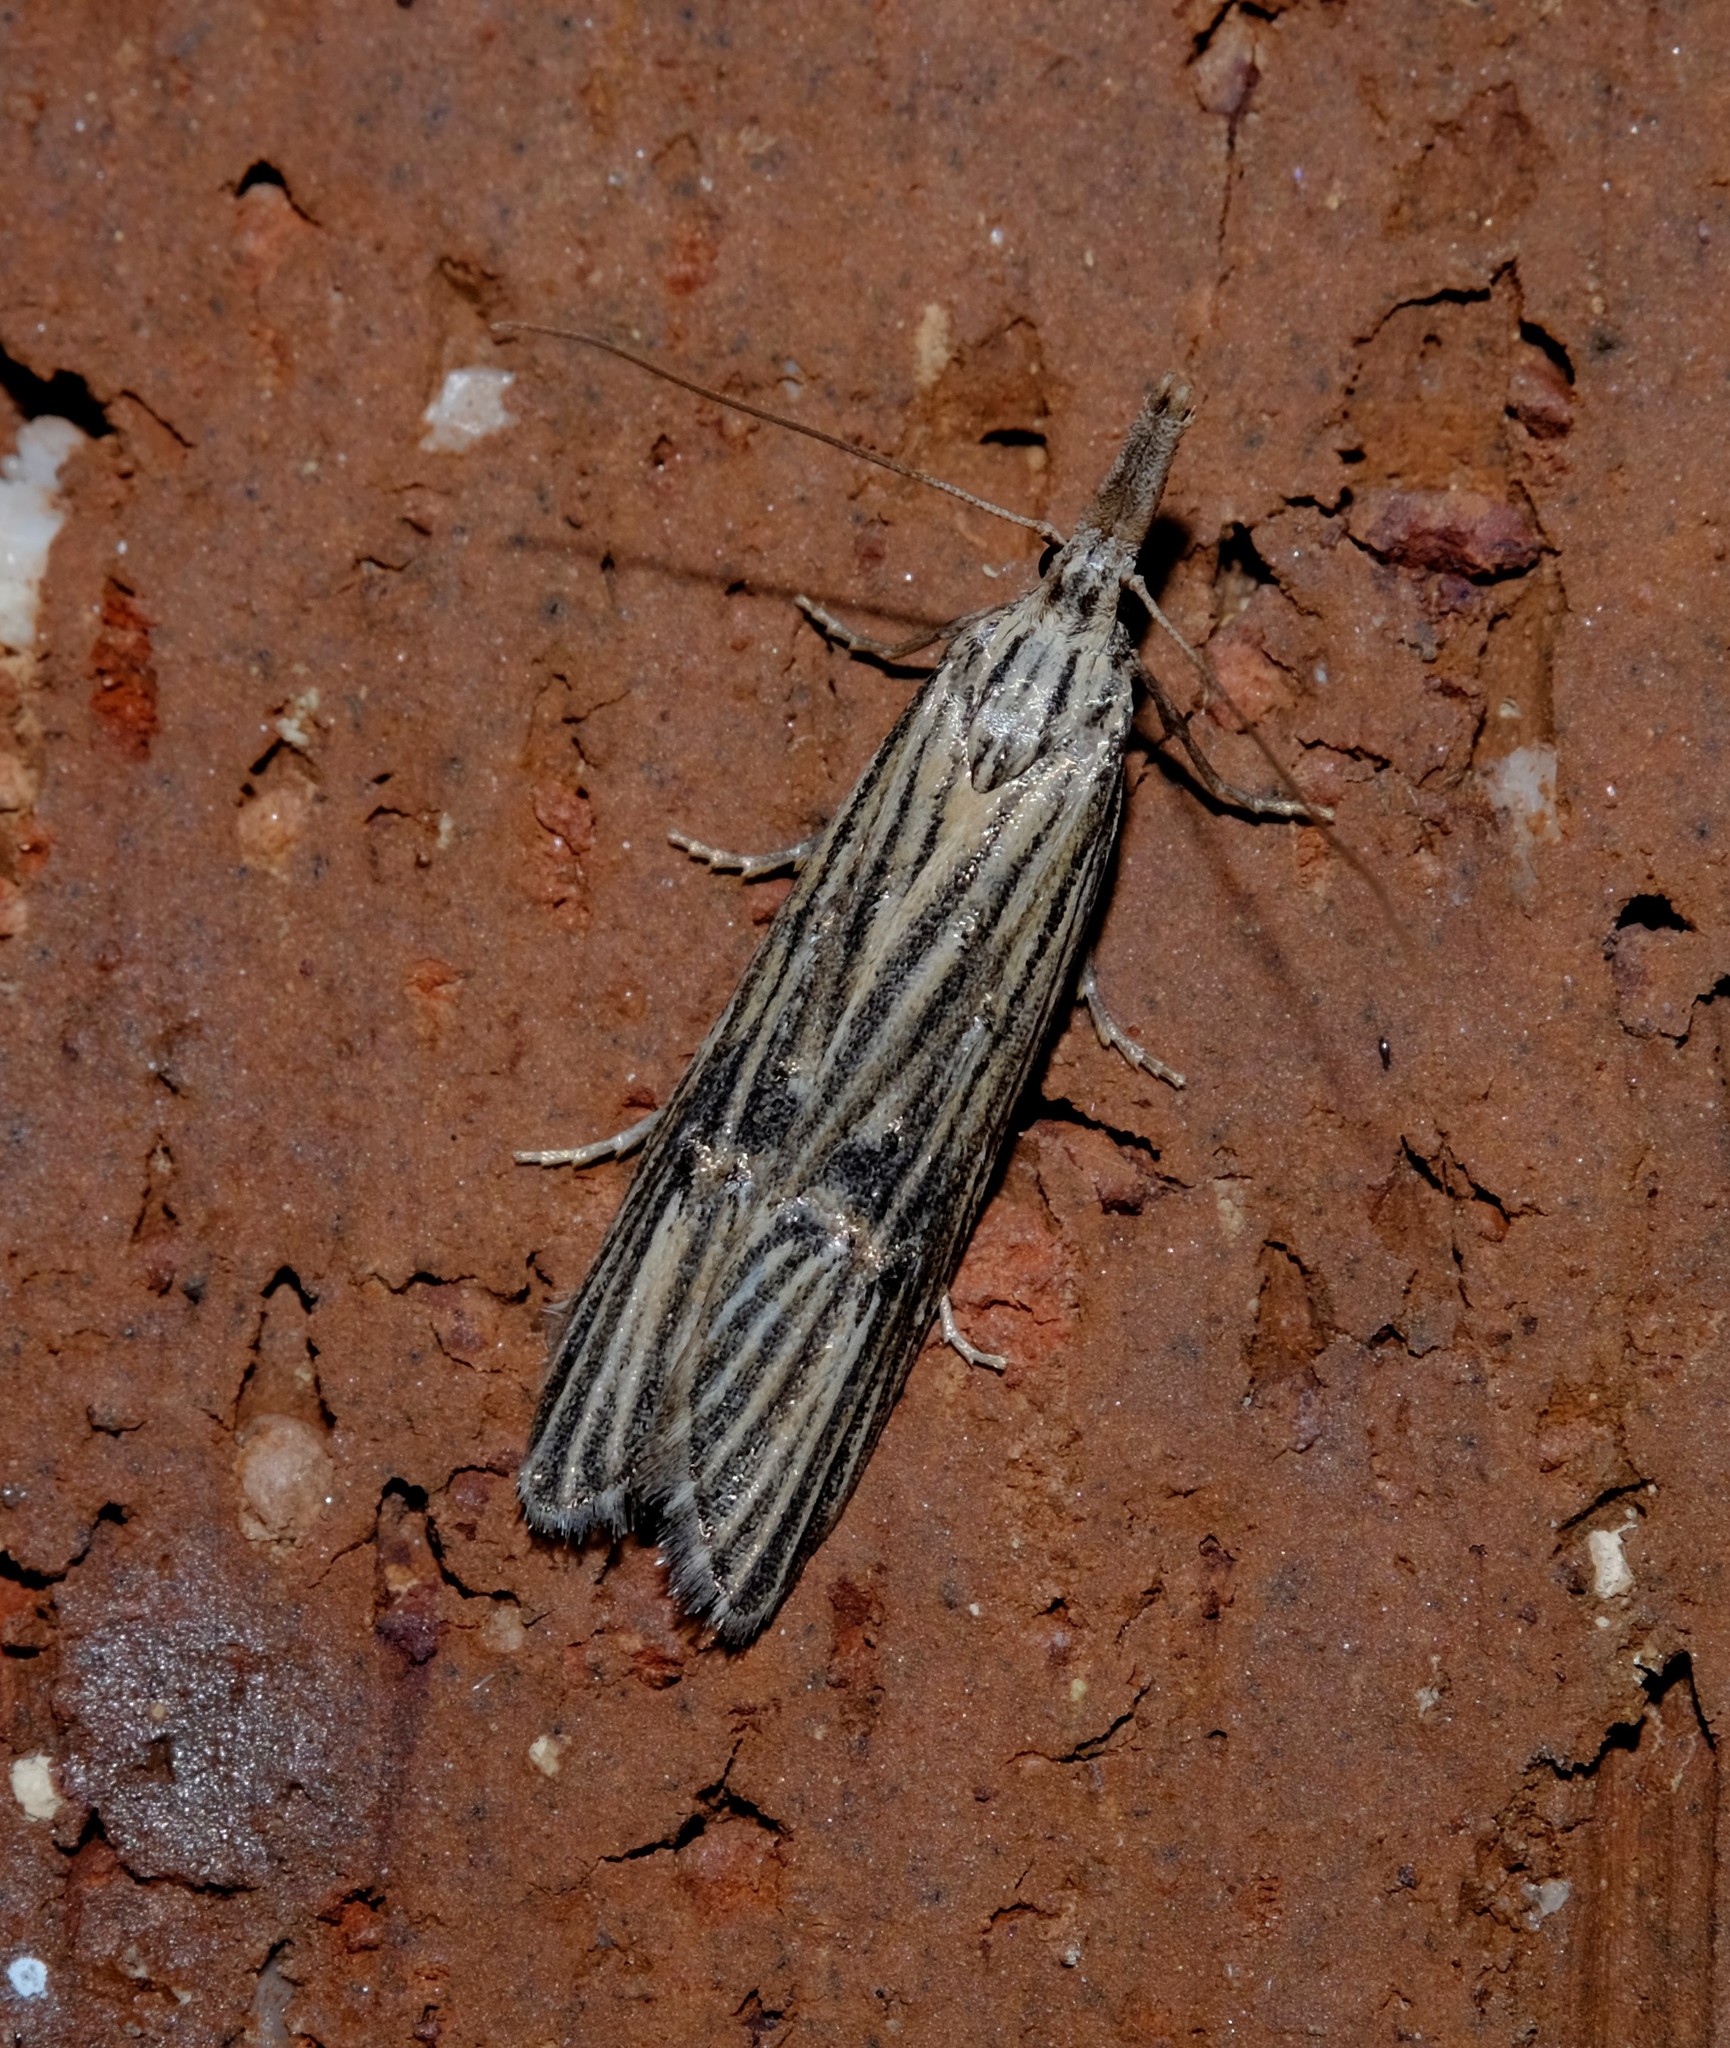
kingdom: Animalia
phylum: Arthropoda
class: Insecta
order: Lepidoptera
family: Carposinidae
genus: Carposina
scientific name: Carposina neurophorella
